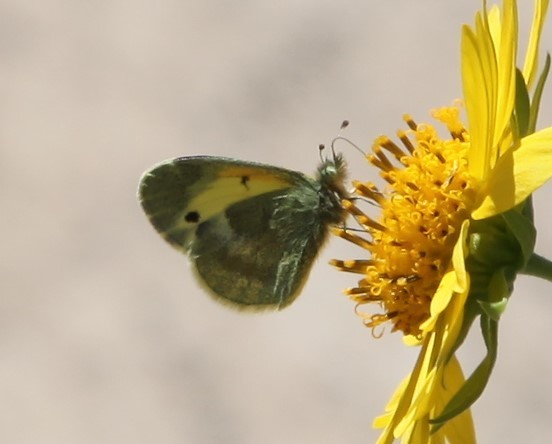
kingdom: Animalia
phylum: Arthropoda
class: Insecta
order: Lepidoptera
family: Pieridae
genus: Nathalis
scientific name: Nathalis iole
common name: Dainty sulphur
